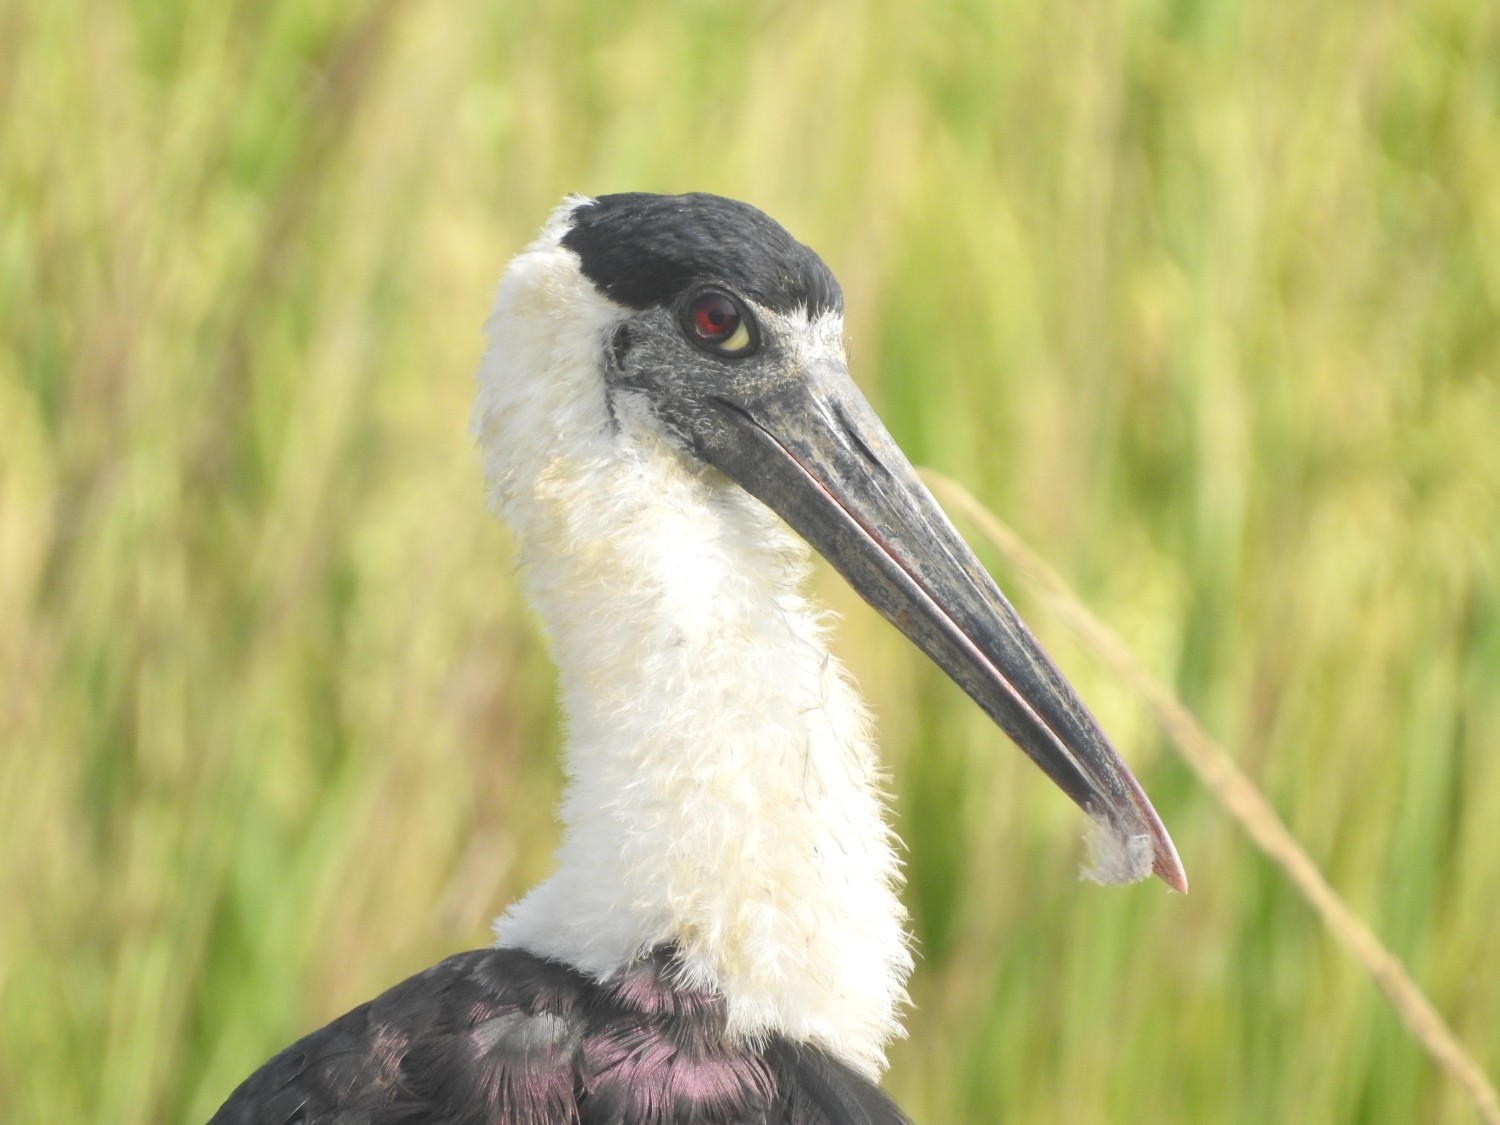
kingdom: Animalia
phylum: Chordata
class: Aves
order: Ciconiiformes
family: Ciconiidae
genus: Ciconia
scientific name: Ciconia episcopus
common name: Woolly-necked stork
